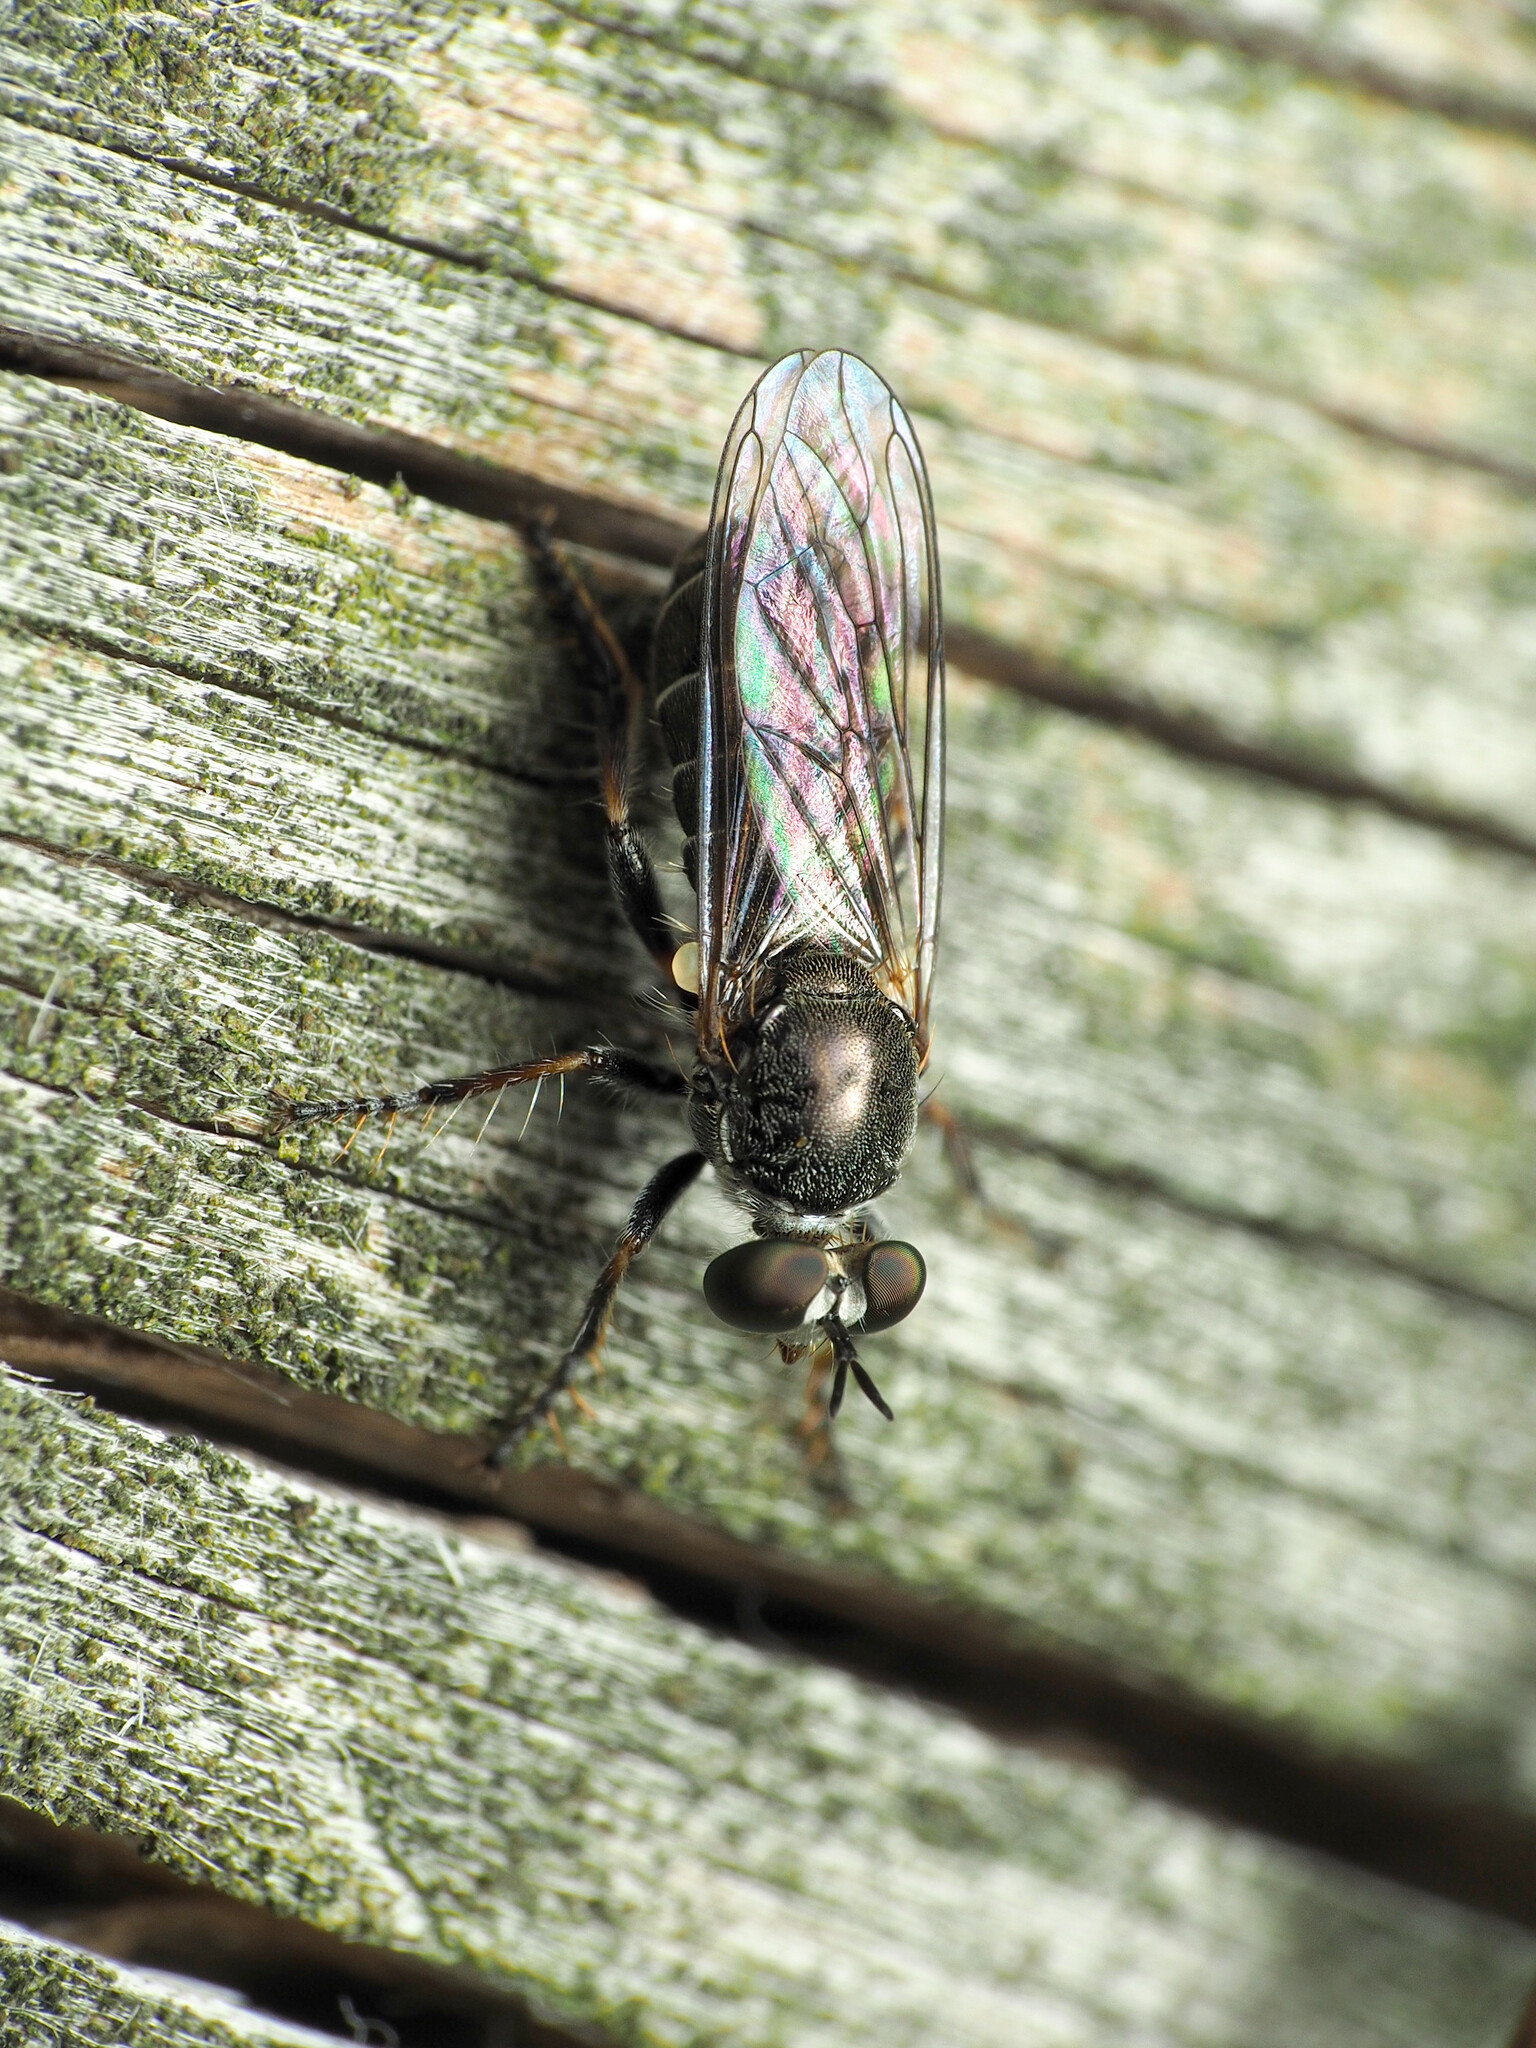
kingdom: Animalia
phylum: Arthropoda
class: Insecta
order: Diptera
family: Asilidae
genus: Atomosia
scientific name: Atomosia puella
